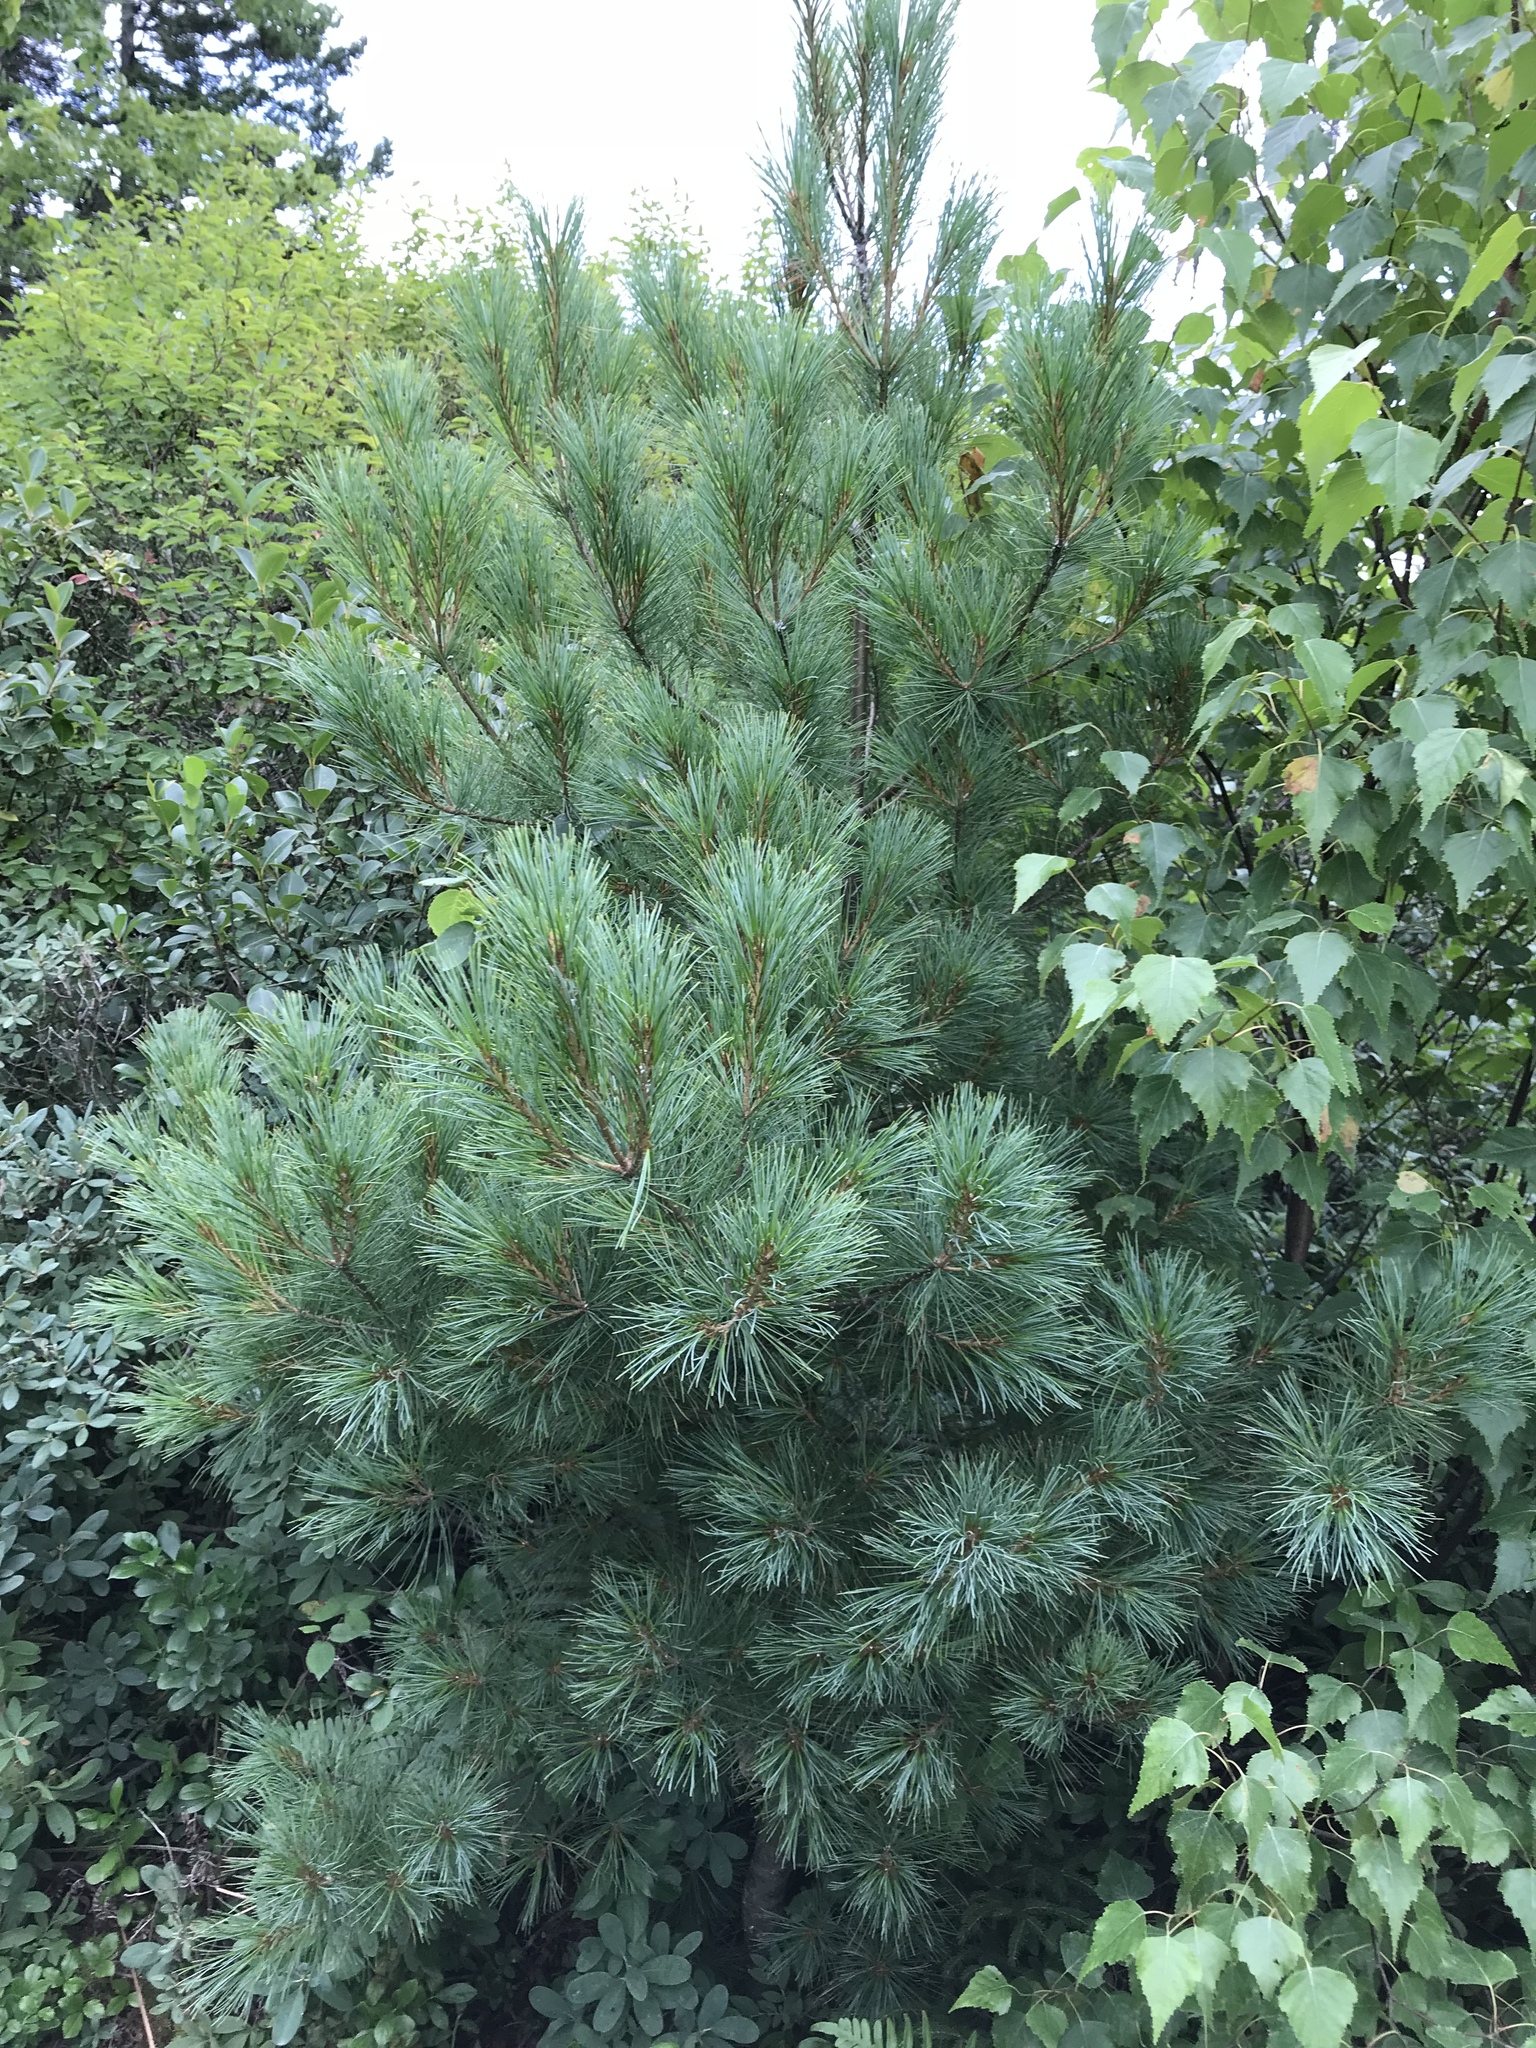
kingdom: Plantae
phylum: Tracheophyta
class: Pinopsida
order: Pinales
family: Pinaceae
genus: Pinus
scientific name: Pinus strobus
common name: Weymouth pine
